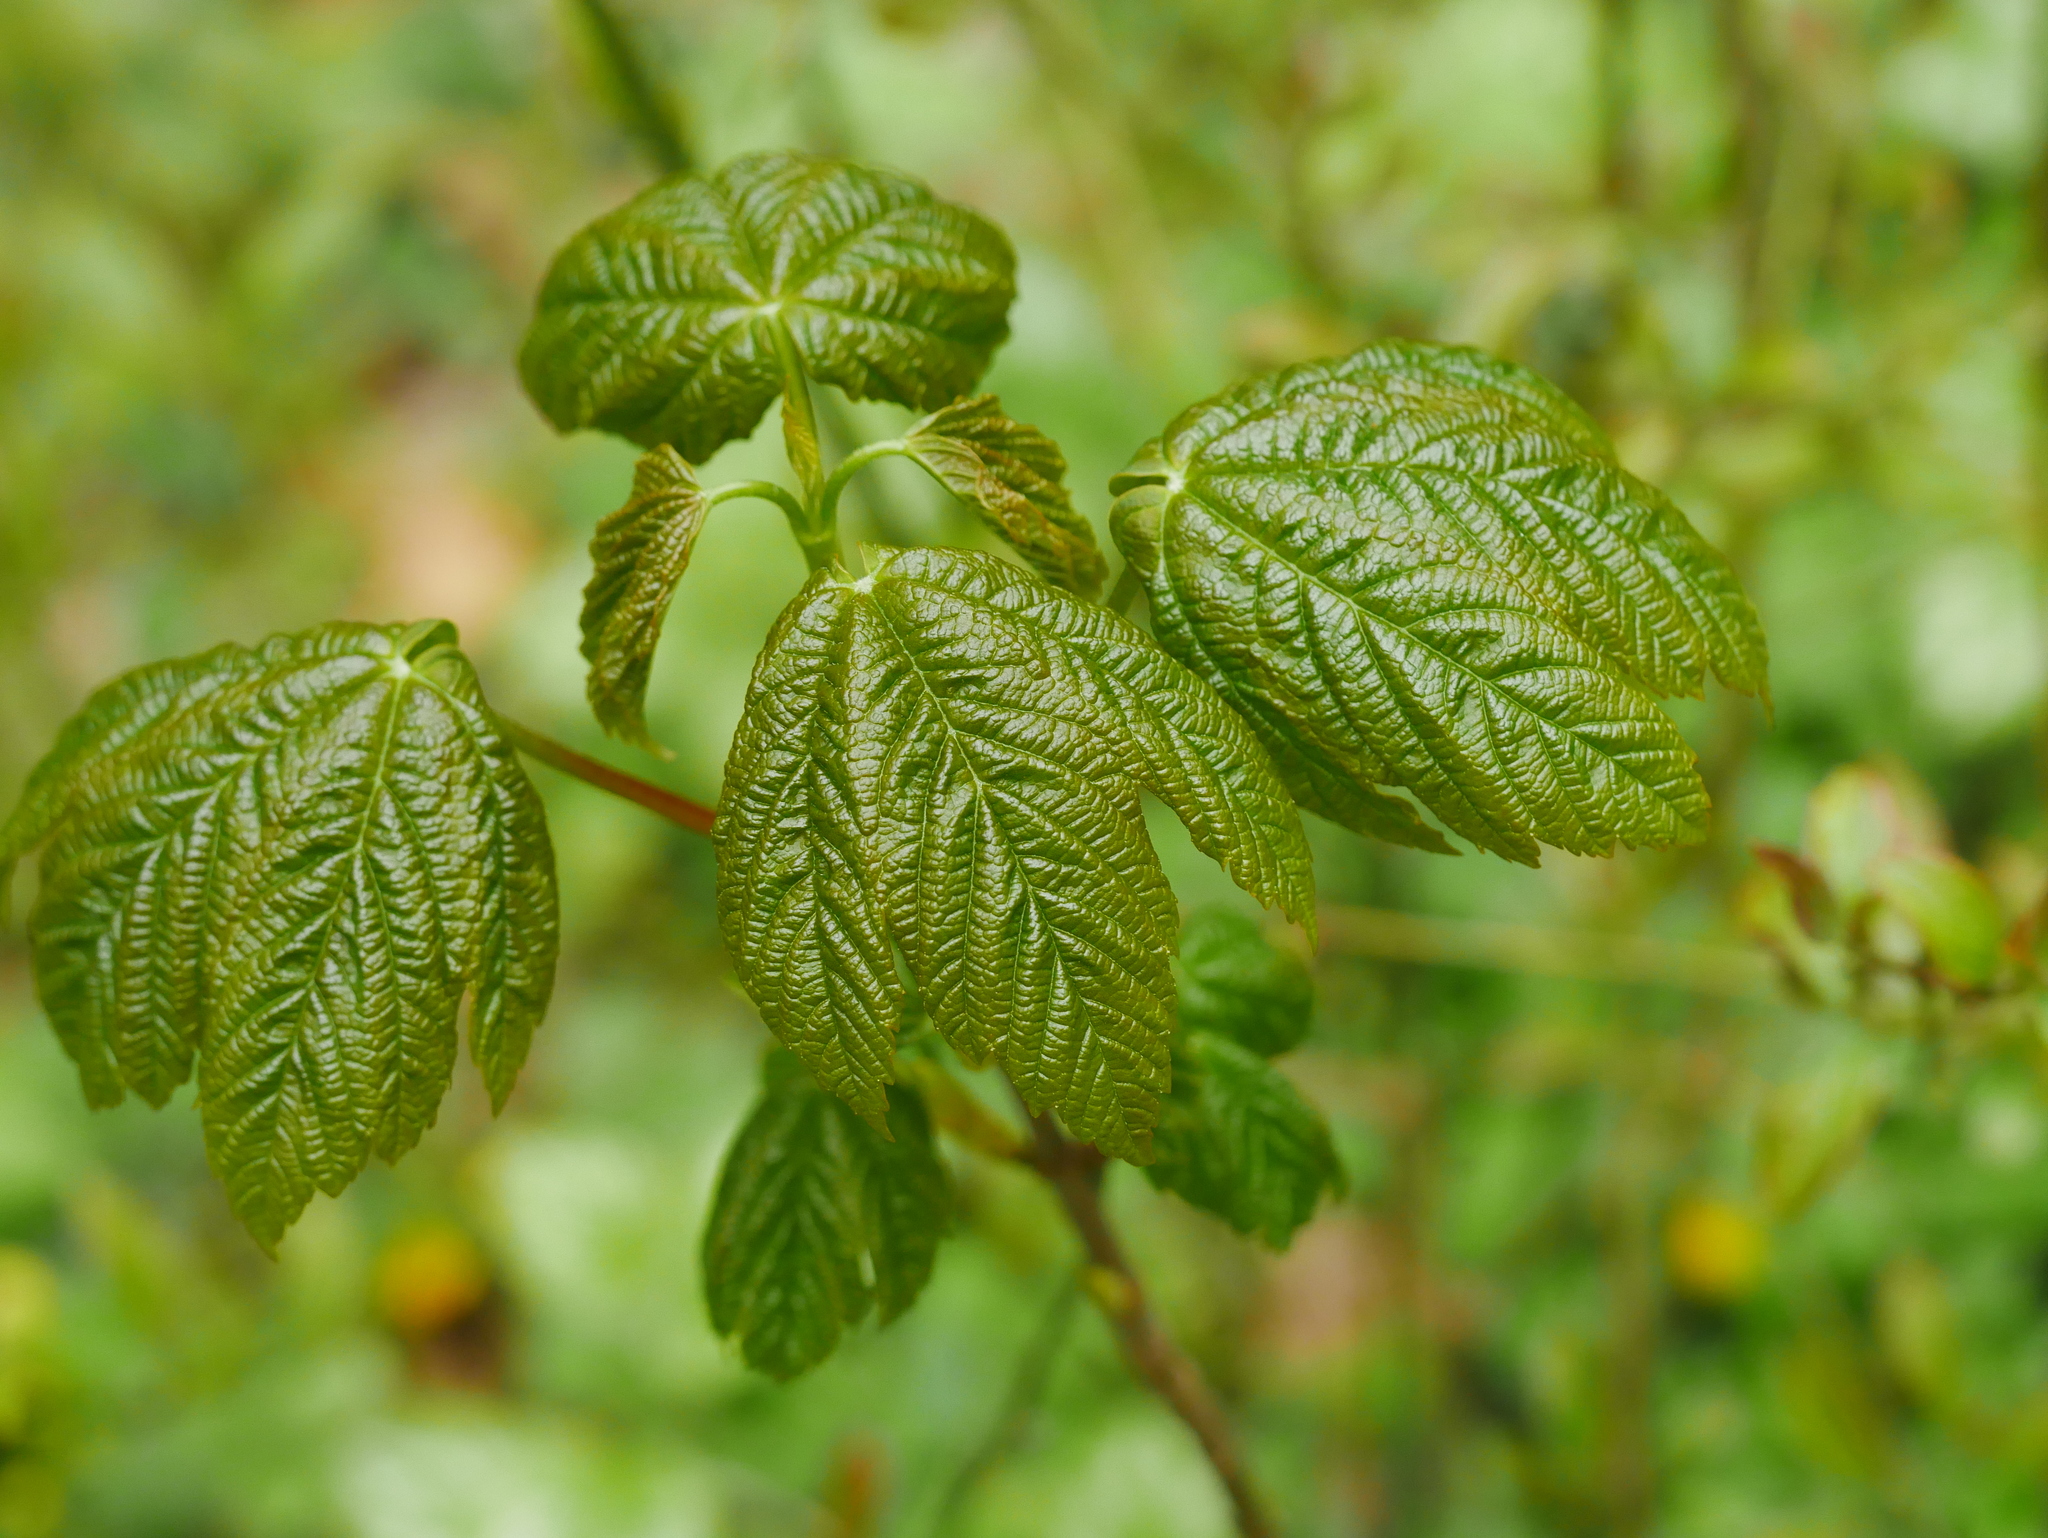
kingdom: Plantae
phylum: Tracheophyta
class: Magnoliopsida
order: Sapindales
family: Sapindaceae
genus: Acer
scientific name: Acer pseudoplatanus
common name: Sycamore
